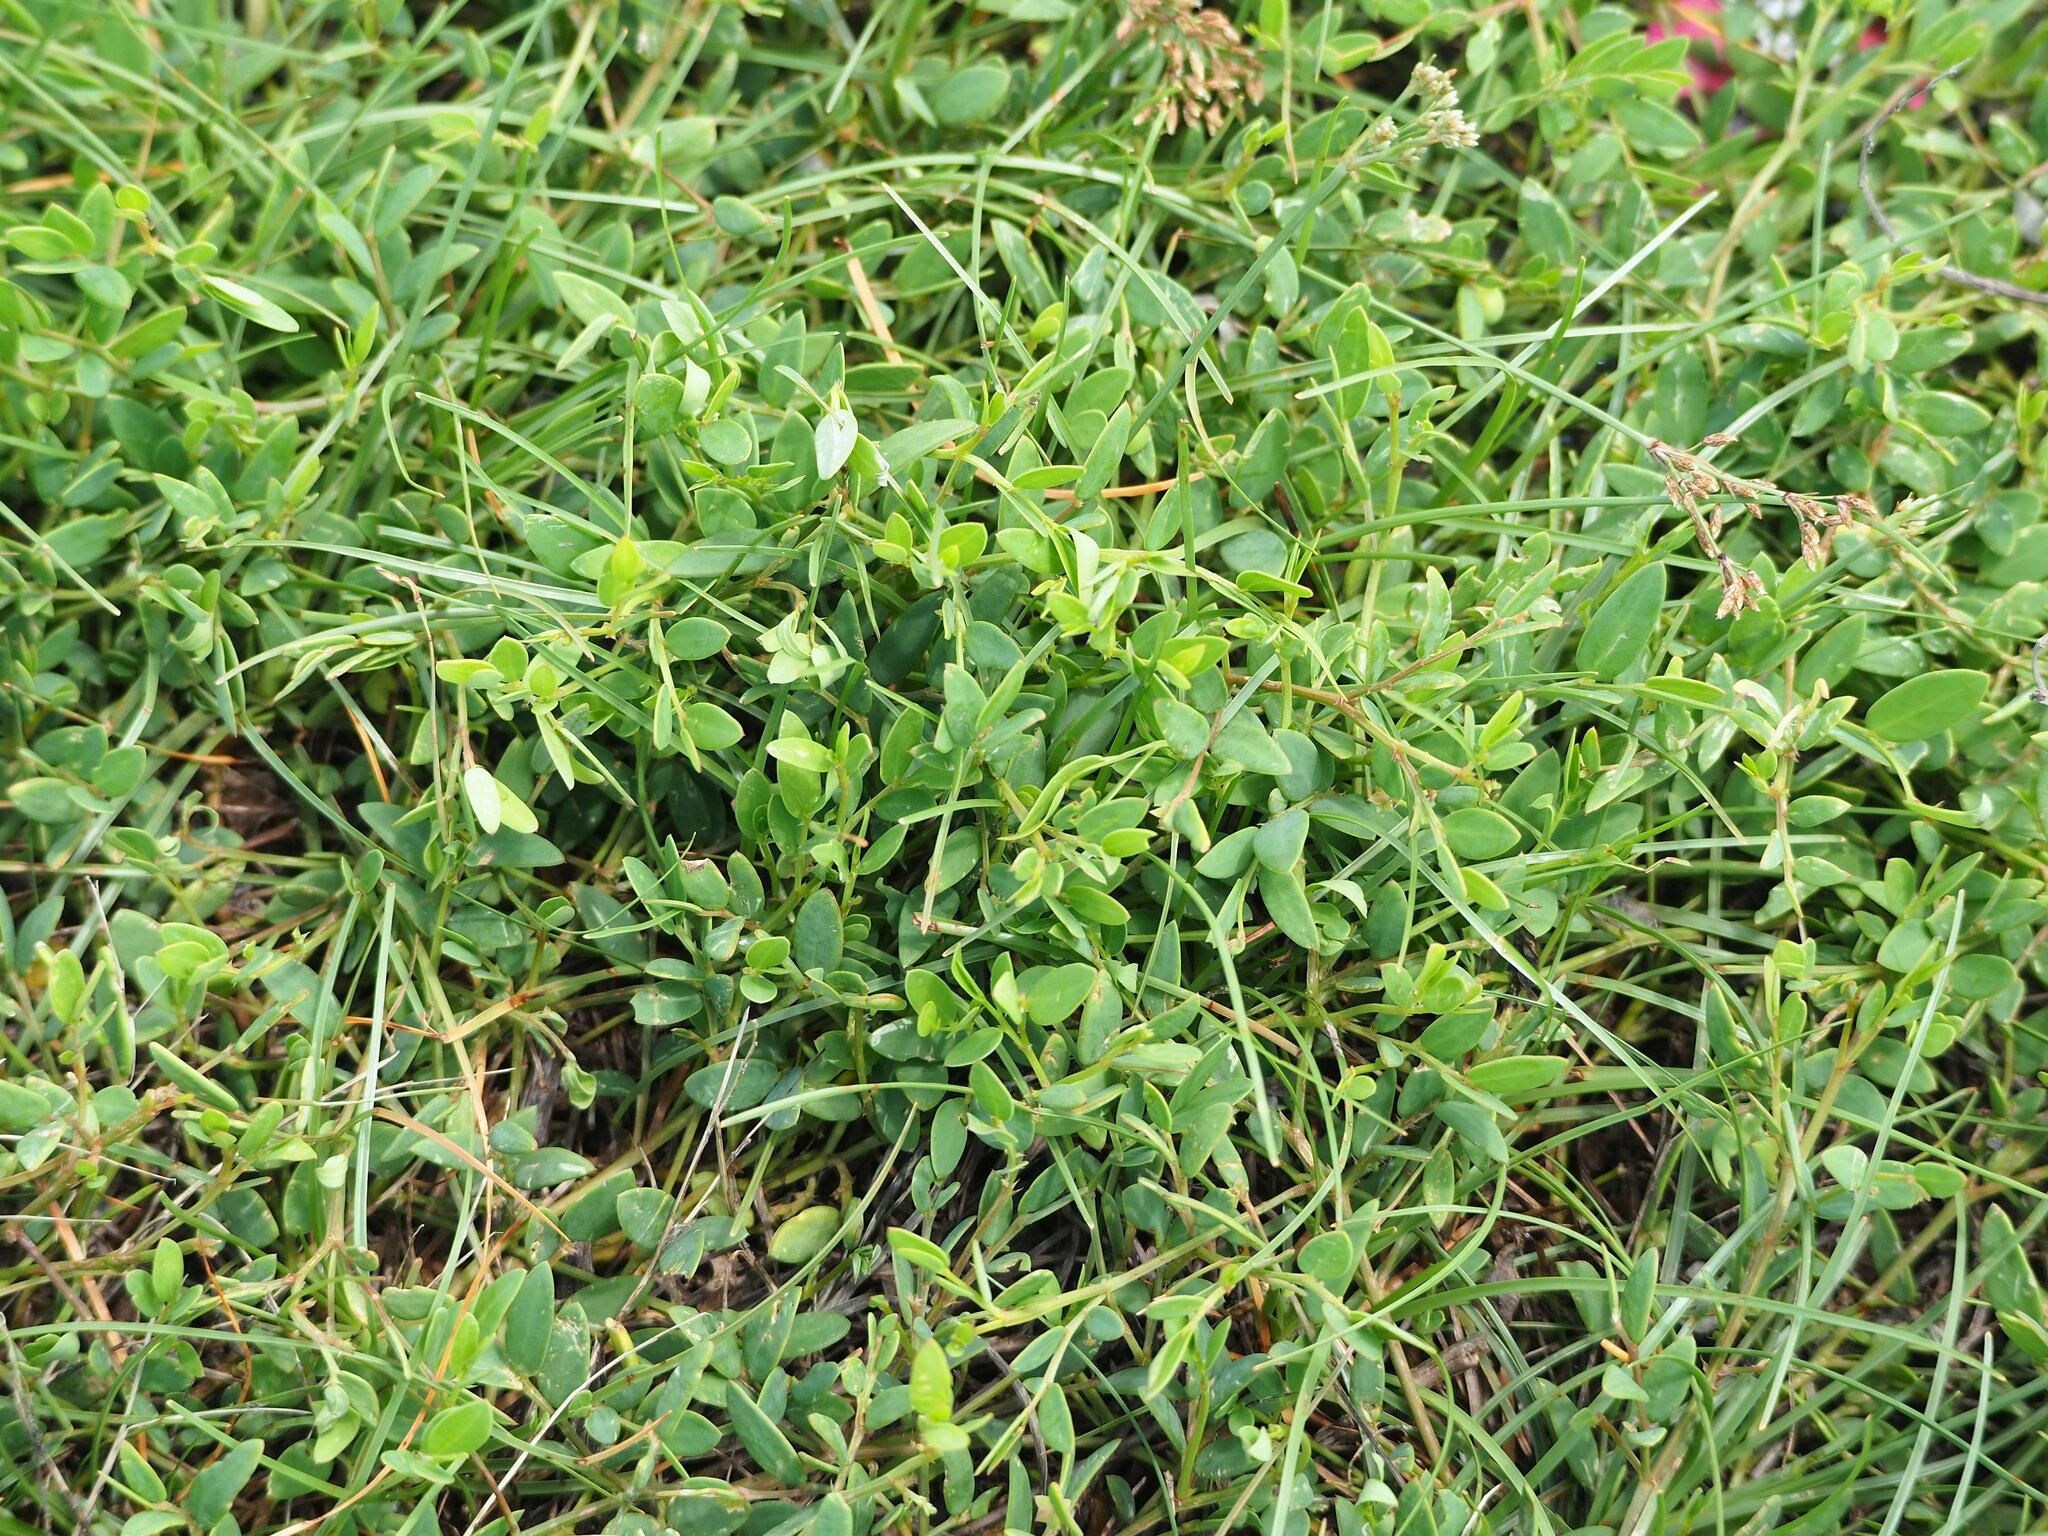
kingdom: Plantae
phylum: Tracheophyta
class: Magnoliopsida
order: Malpighiales
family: Phyllanthaceae
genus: Synostemon
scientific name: Synostemon bacciformis
